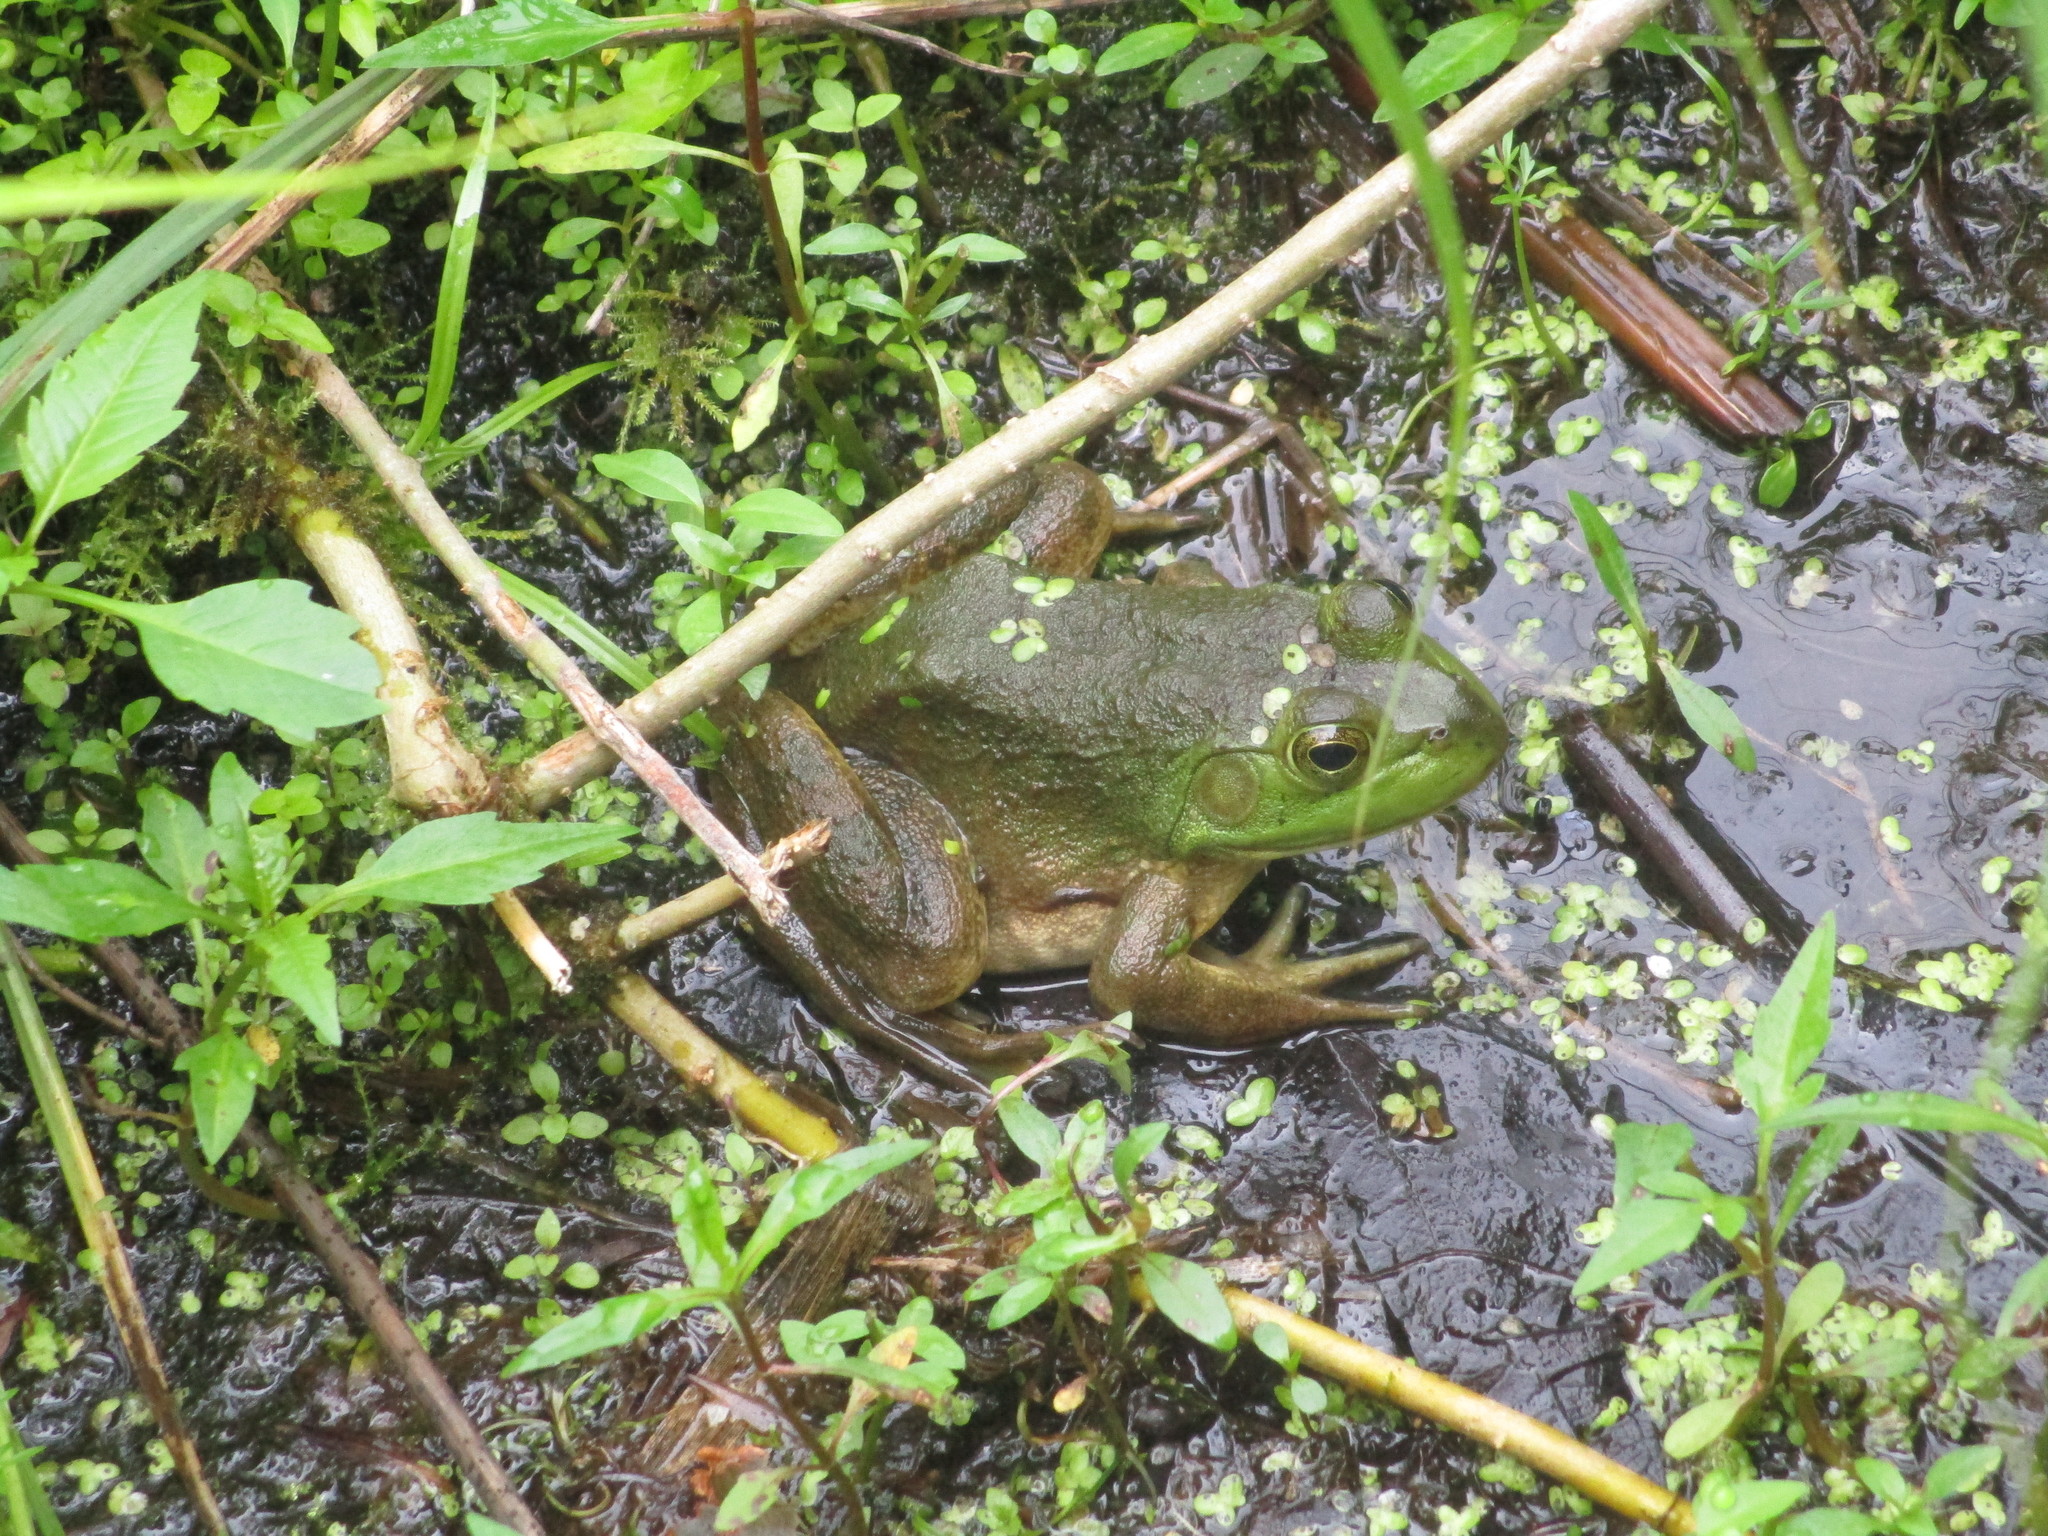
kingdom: Animalia
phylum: Chordata
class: Amphibia
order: Anura
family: Ranidae
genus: Lithobates
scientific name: Lithobates catesbeianus
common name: American bullfrog
